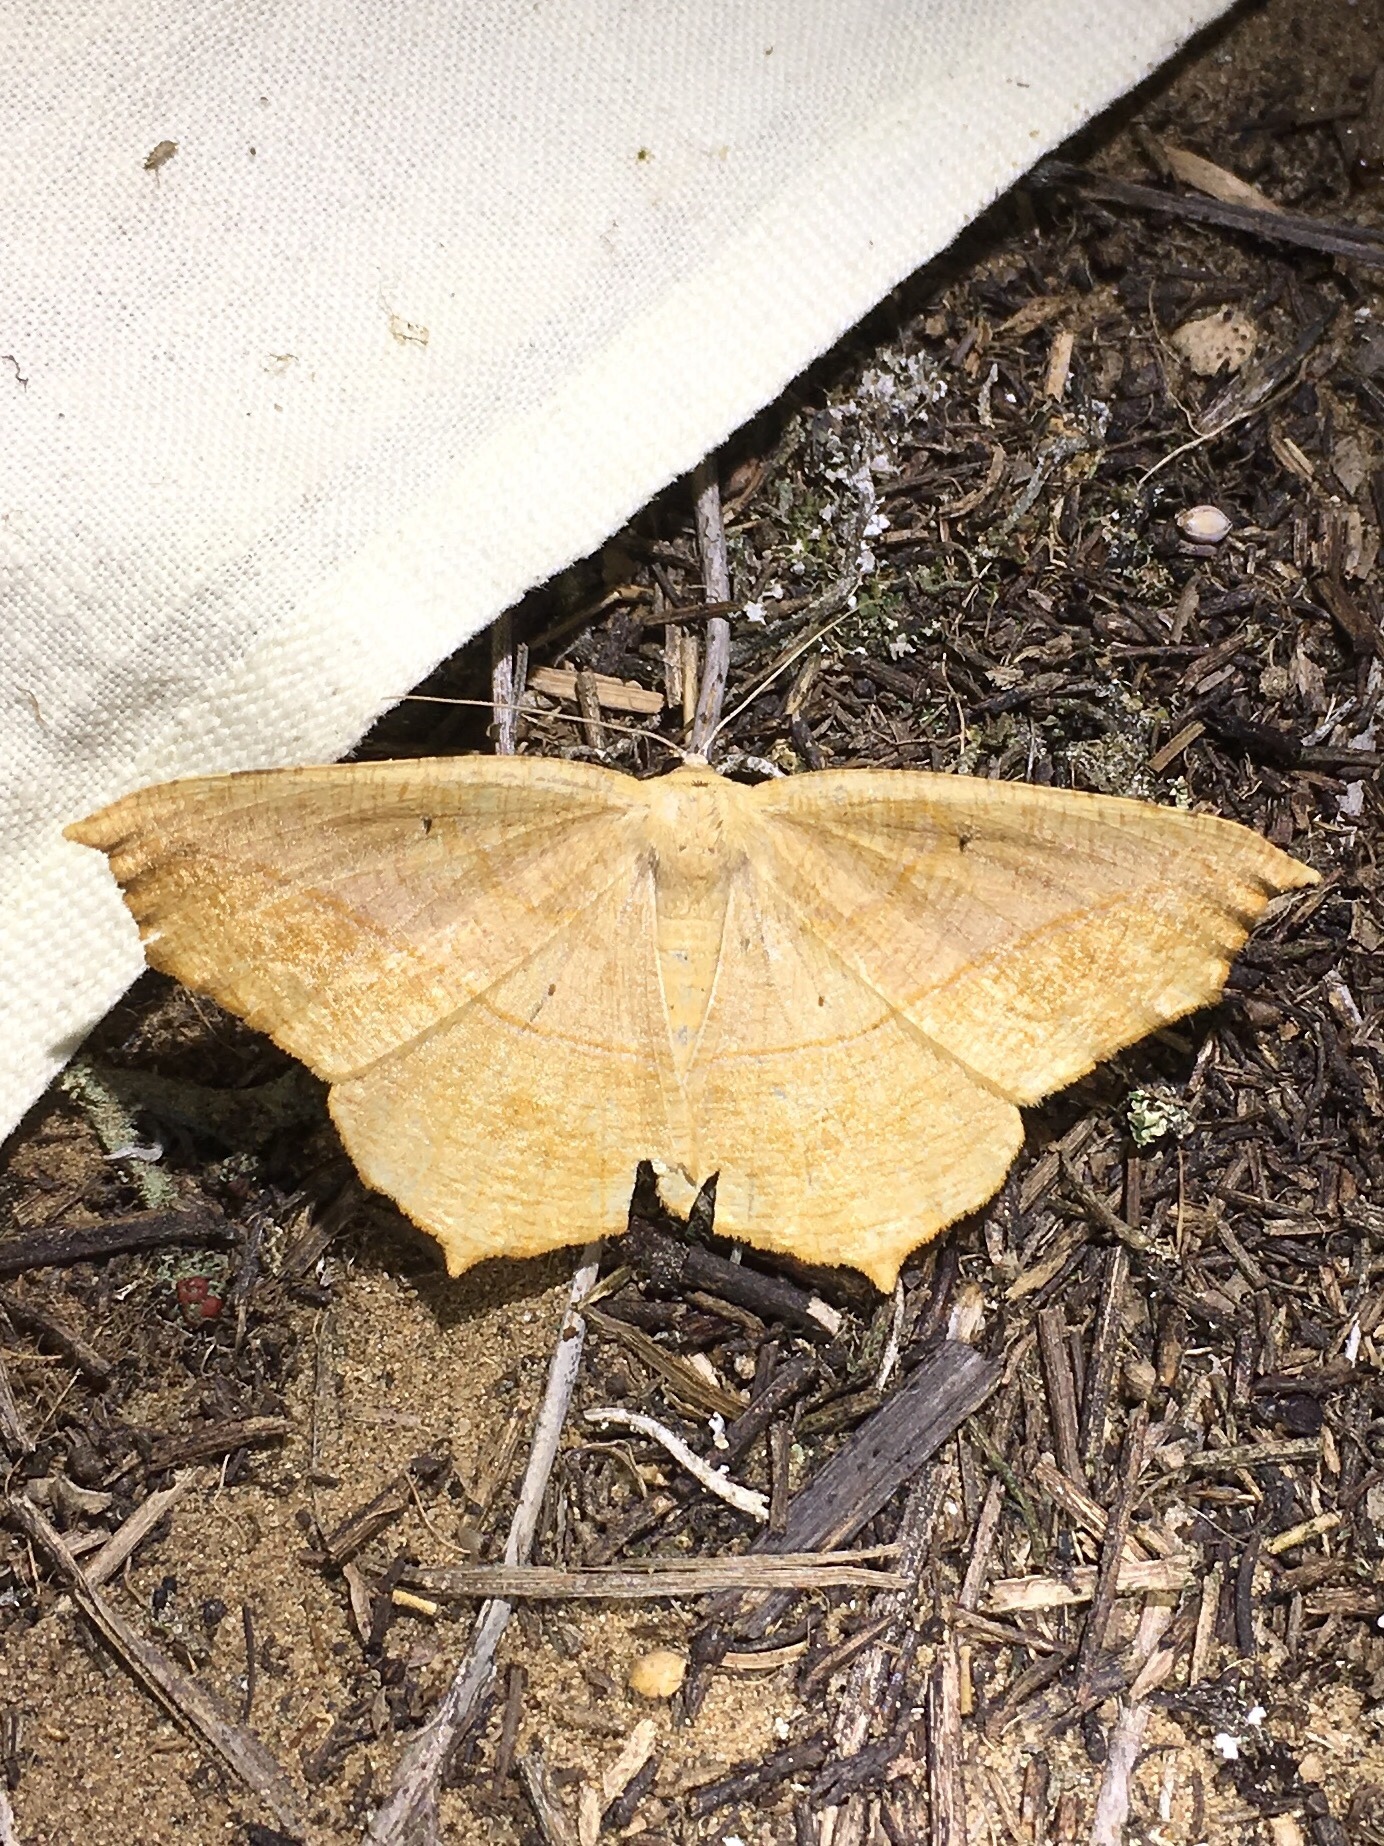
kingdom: Animalia
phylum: Arthropoda
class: Insecta
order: Lepidoptera
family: Geometridae
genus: Prochoerodes
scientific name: Prochoerodes lineola
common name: Large maple spanworm
